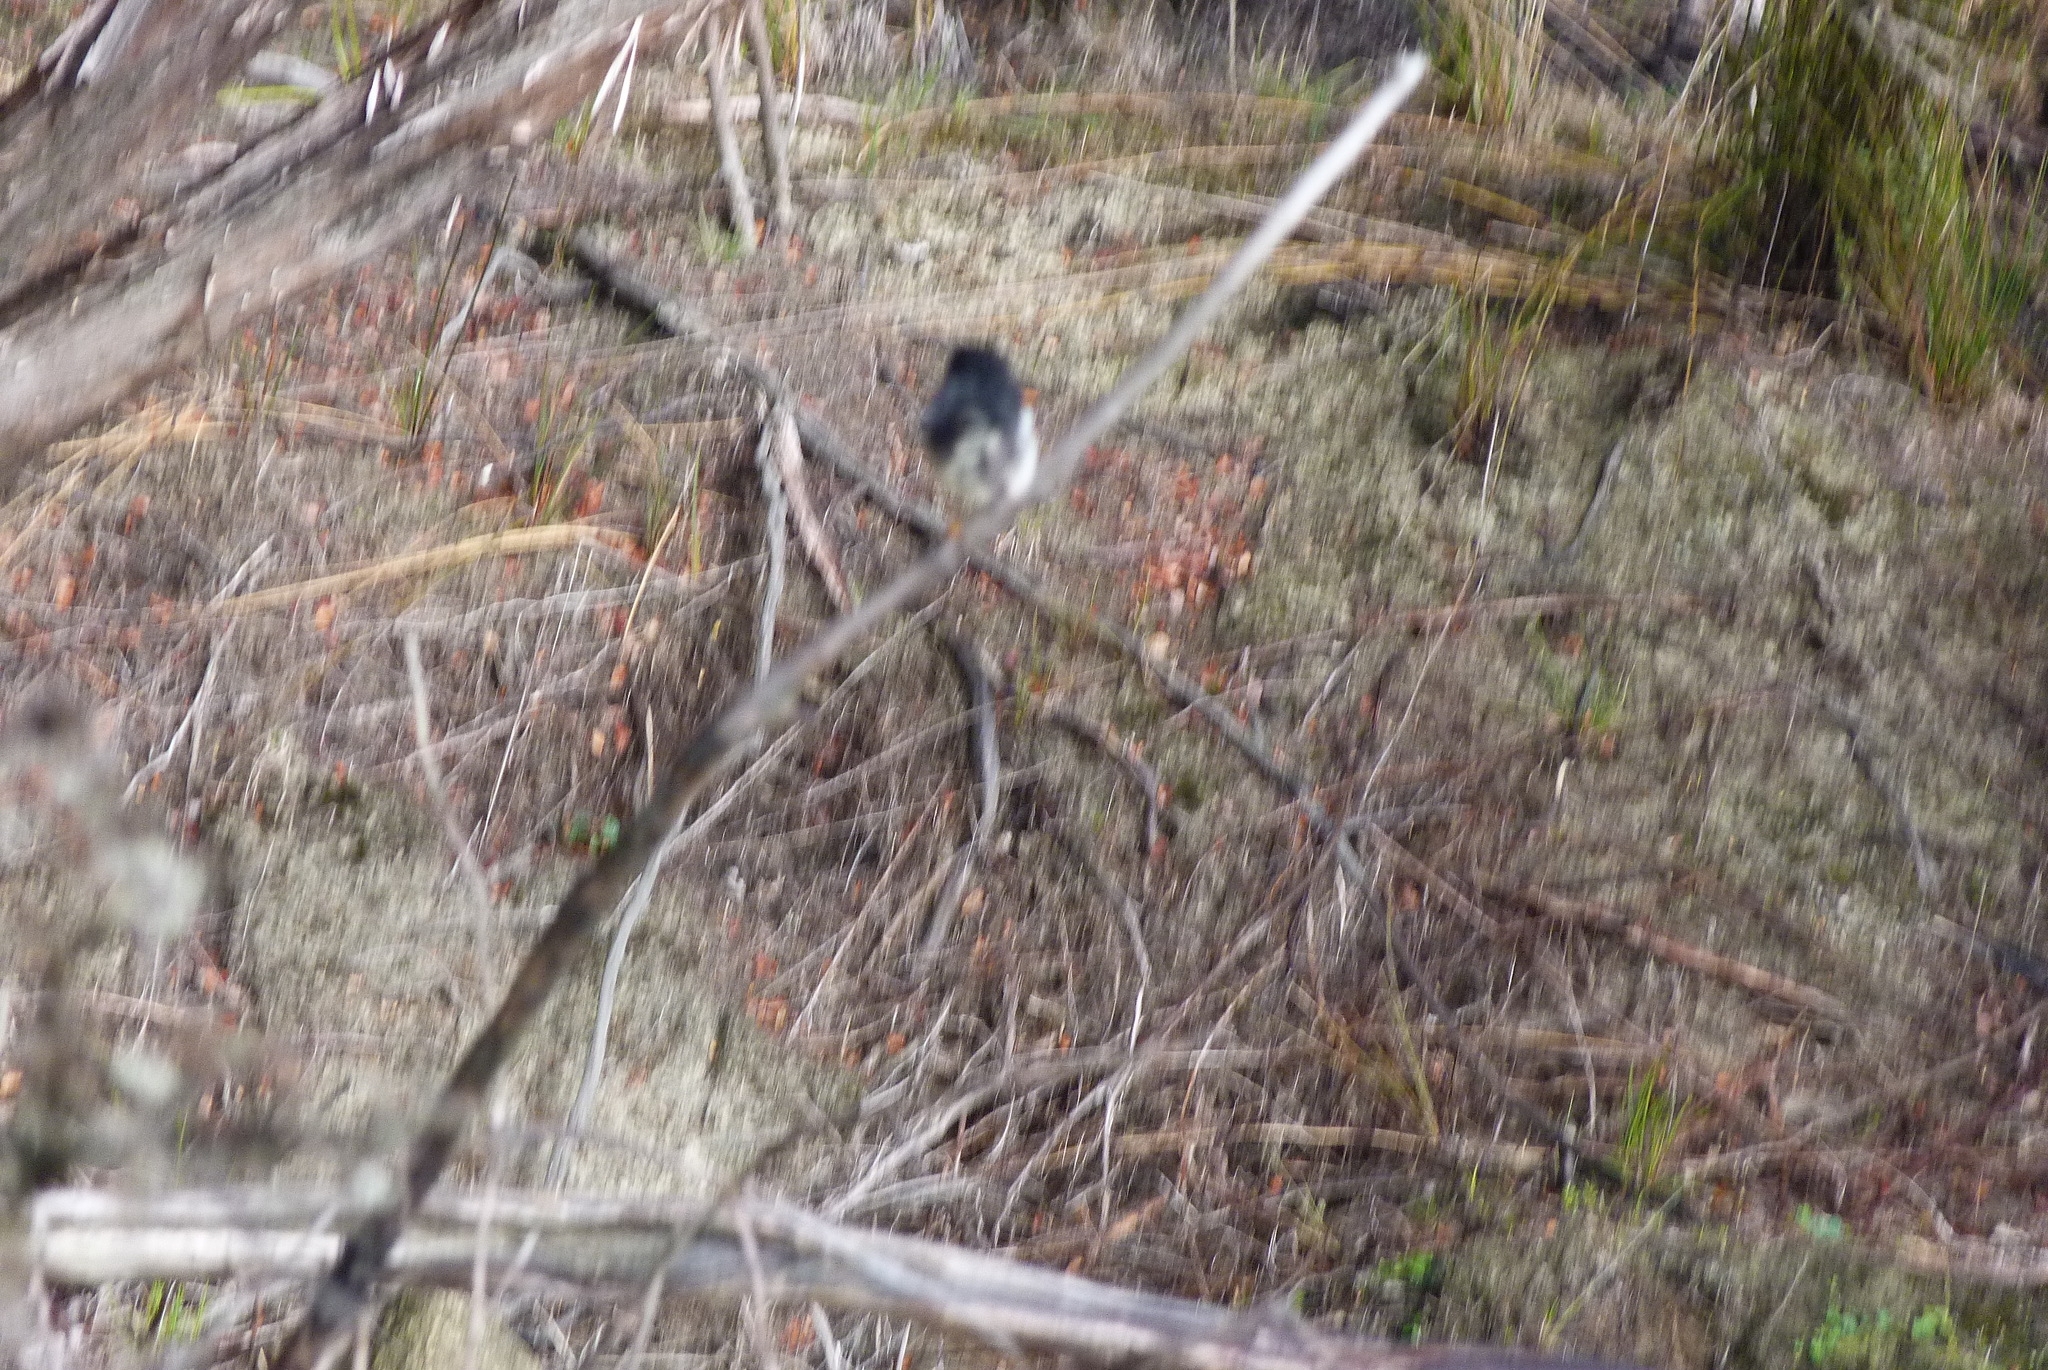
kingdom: Animalia
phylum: Chordata
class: Aves
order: Passeriformes
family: Petroicidae
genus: Petroica
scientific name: Petroica macrocephala
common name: Tomtit
